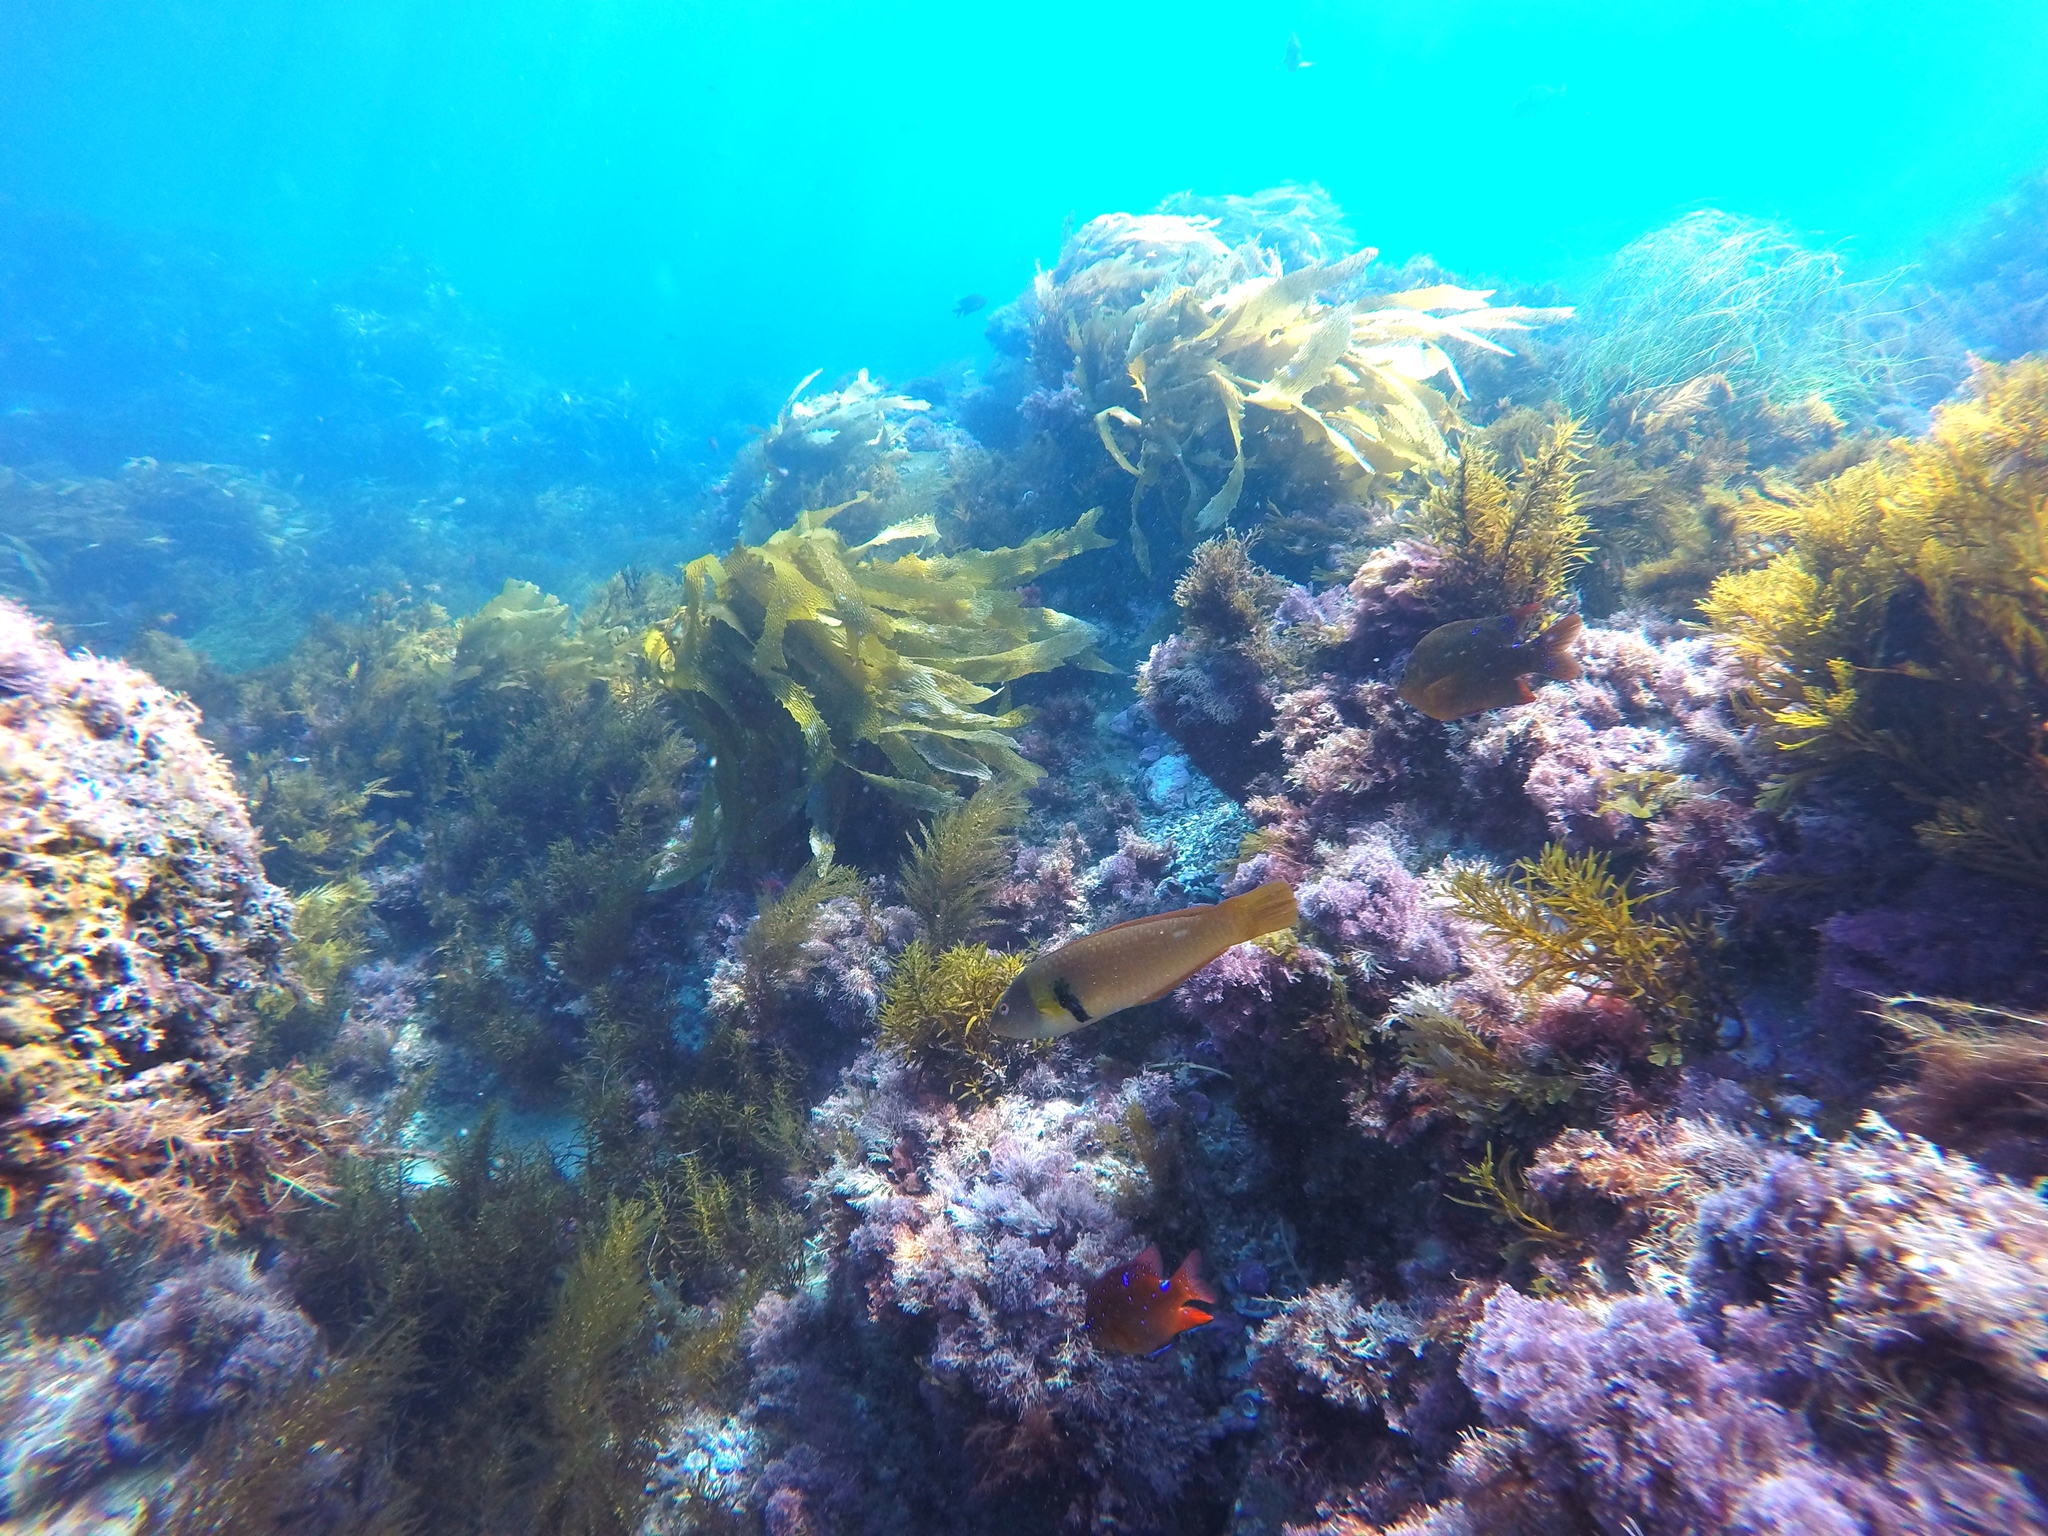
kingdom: Animalia
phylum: Chordata
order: Perciformes
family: Labridae
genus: Halichoeres
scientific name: Halichoeres semicinctus
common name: Rock wrasse
